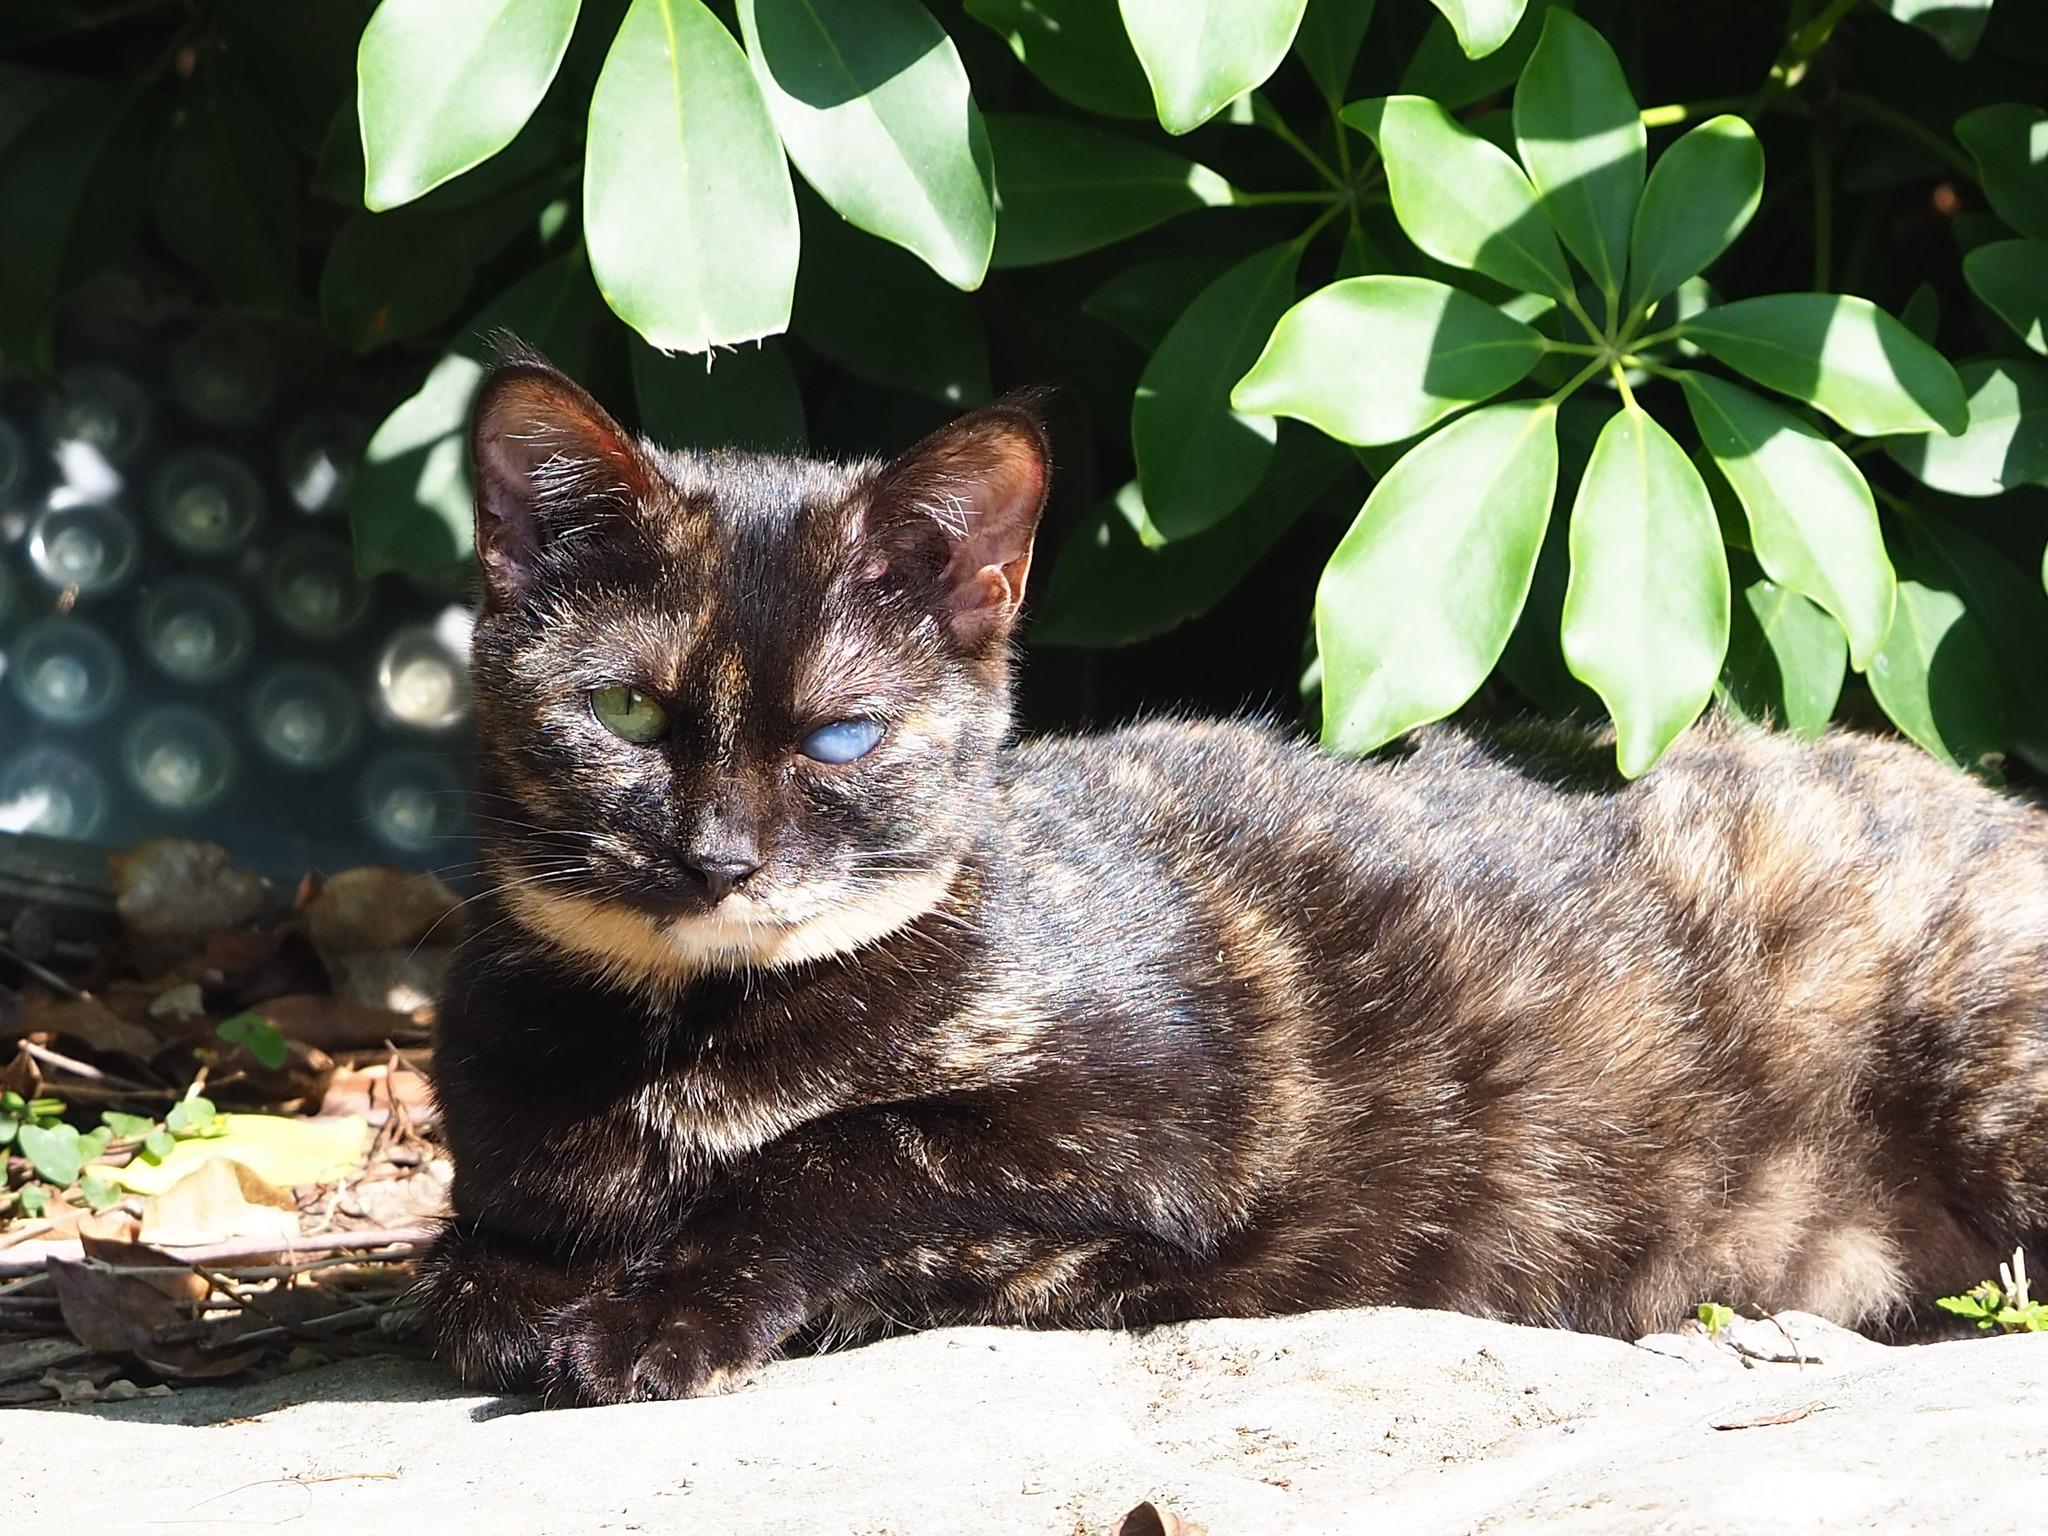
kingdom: Animalia
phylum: Chordata
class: Mammalia
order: Carnivora
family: Felidae
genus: Felis
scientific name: Felis catus
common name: Domestic cat
